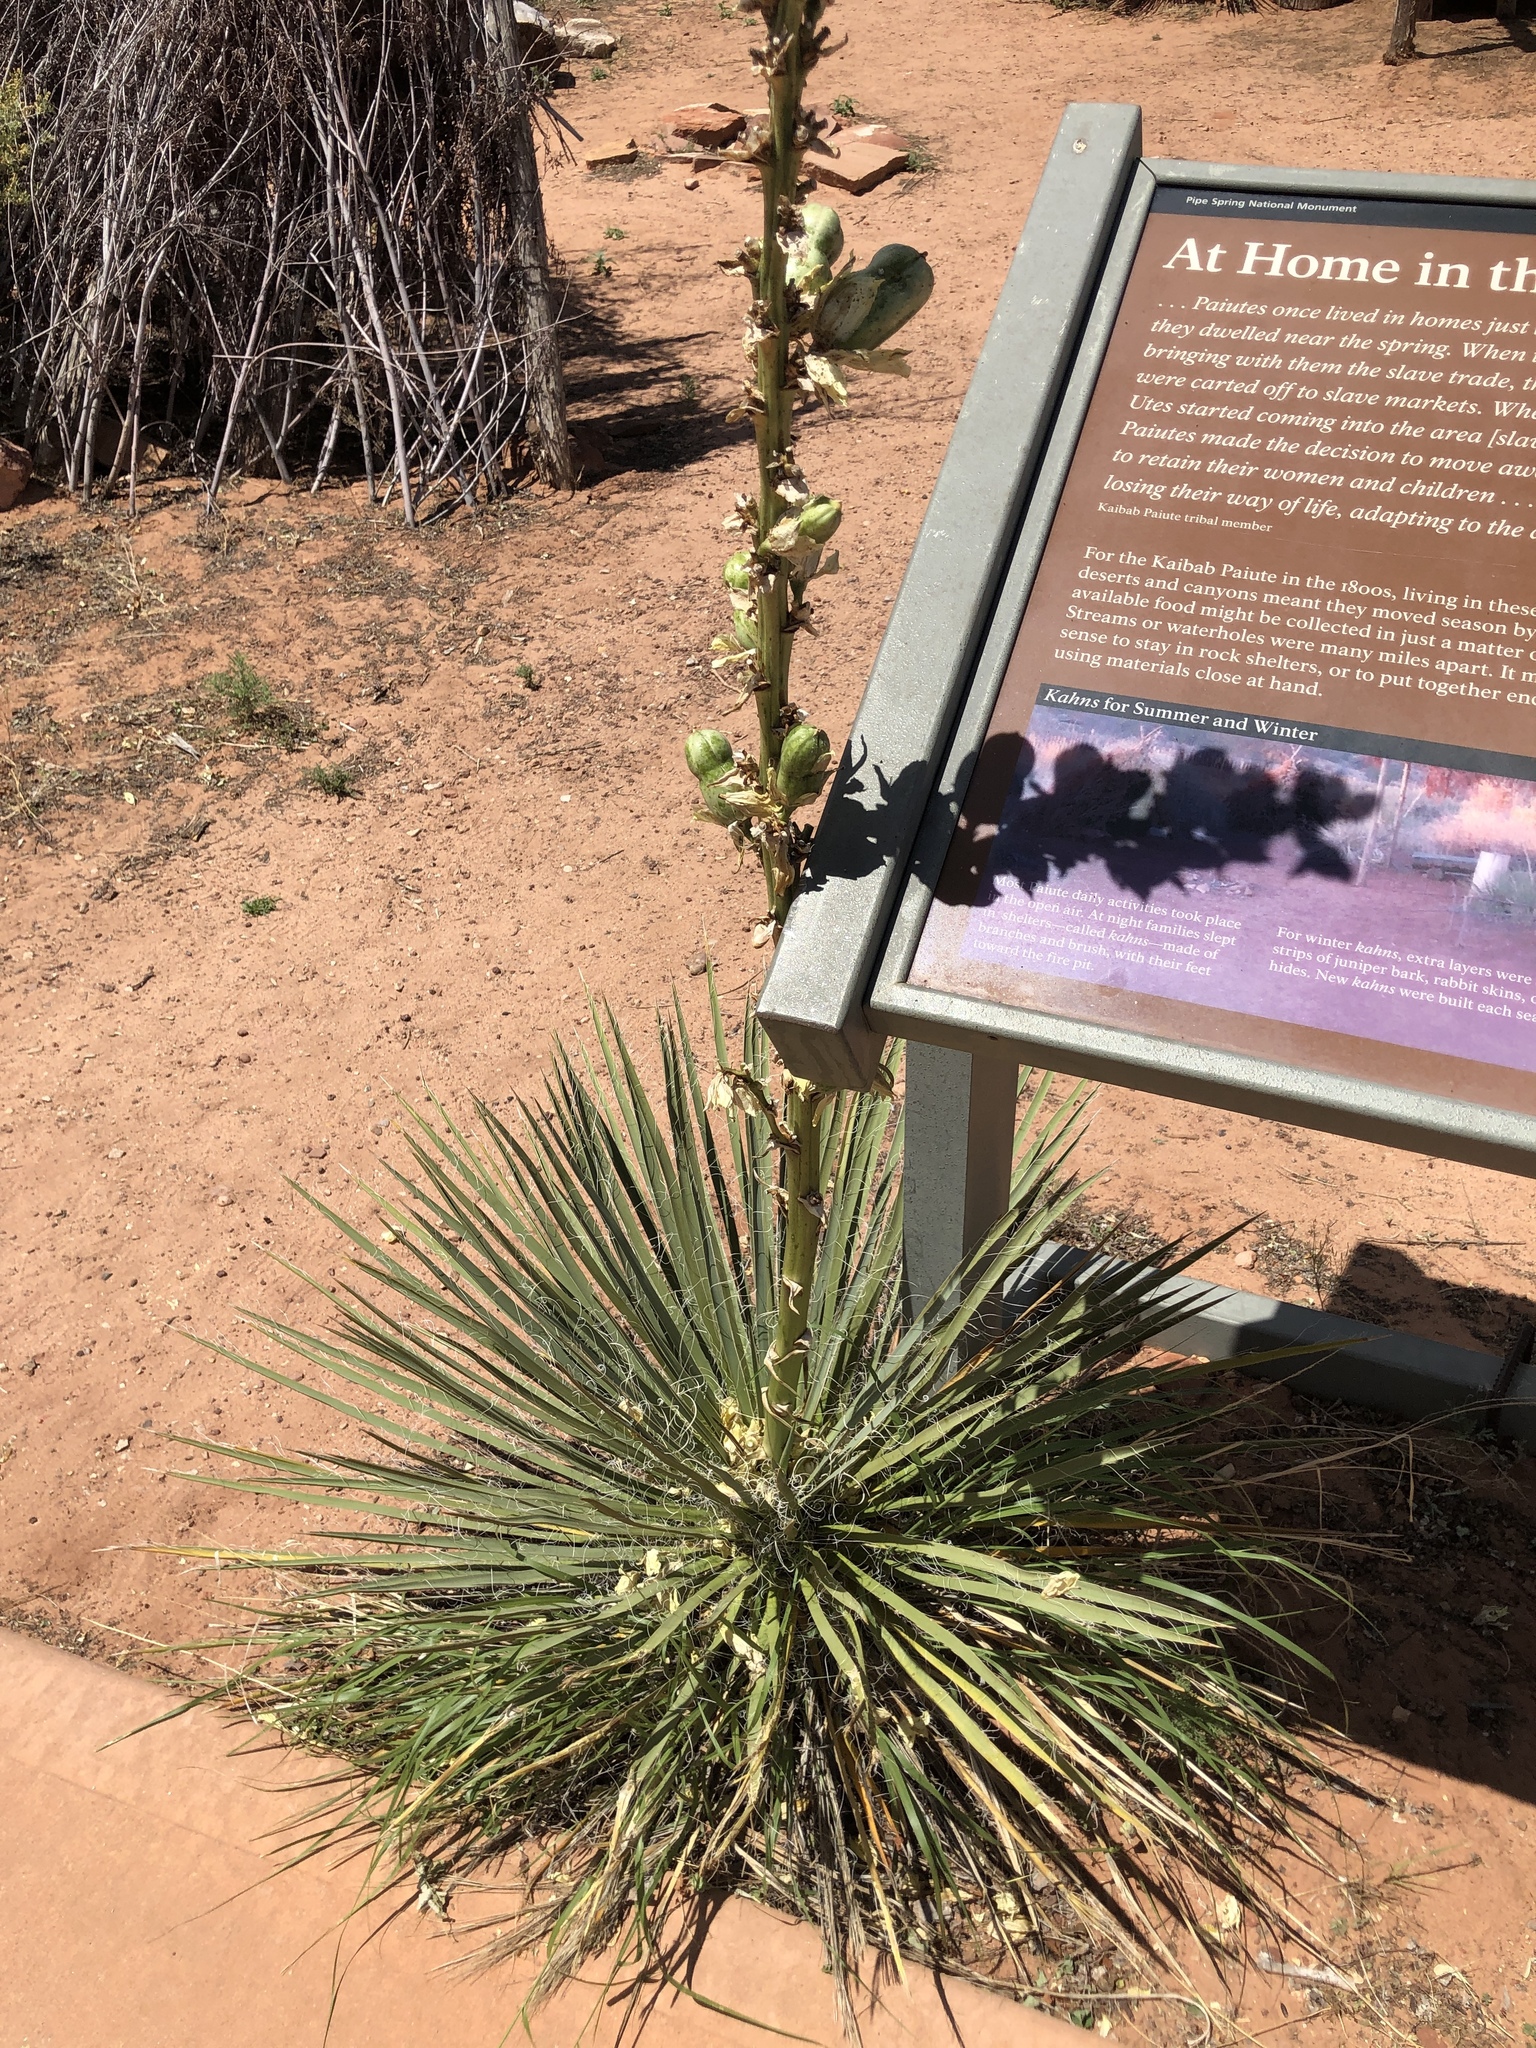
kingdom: Plantae
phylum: Tracheophyta
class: Liliopsida
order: Asparagales
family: Asparagaceae
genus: Yucca
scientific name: Yucca angustissima
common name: Narrowleaf yucca
